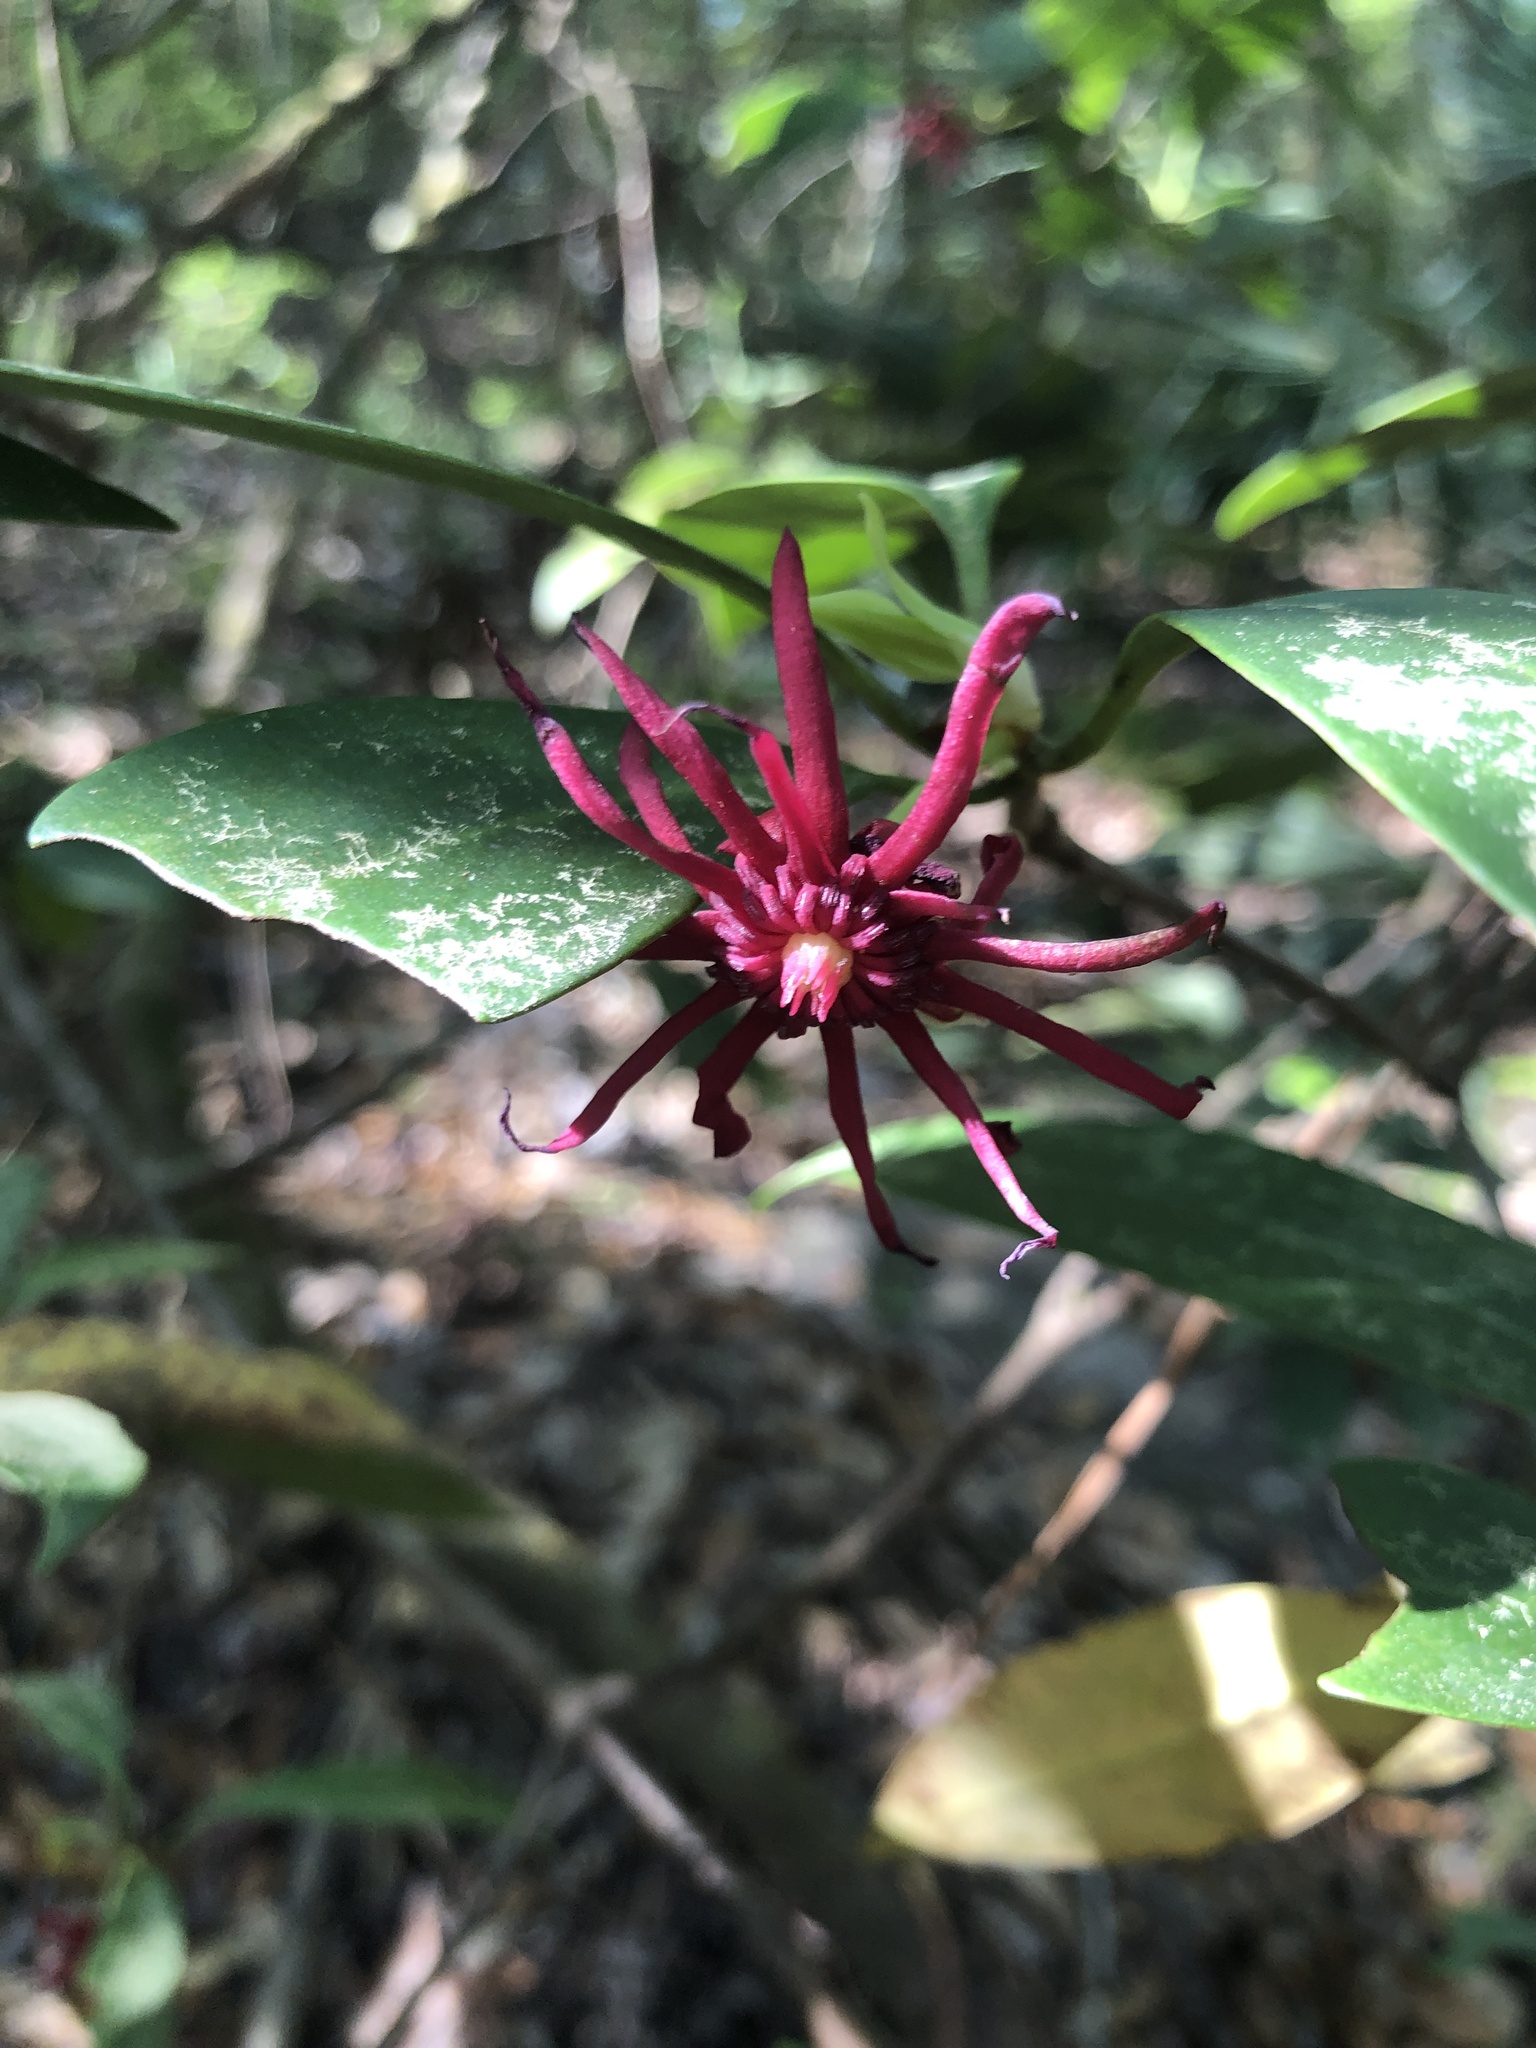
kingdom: Plantae
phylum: Tracheophyta
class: Magnoliopsida
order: Austrobaileyales
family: Schisandraceae
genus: Illicium
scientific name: Illicium floridanum
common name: Florida anisetree
